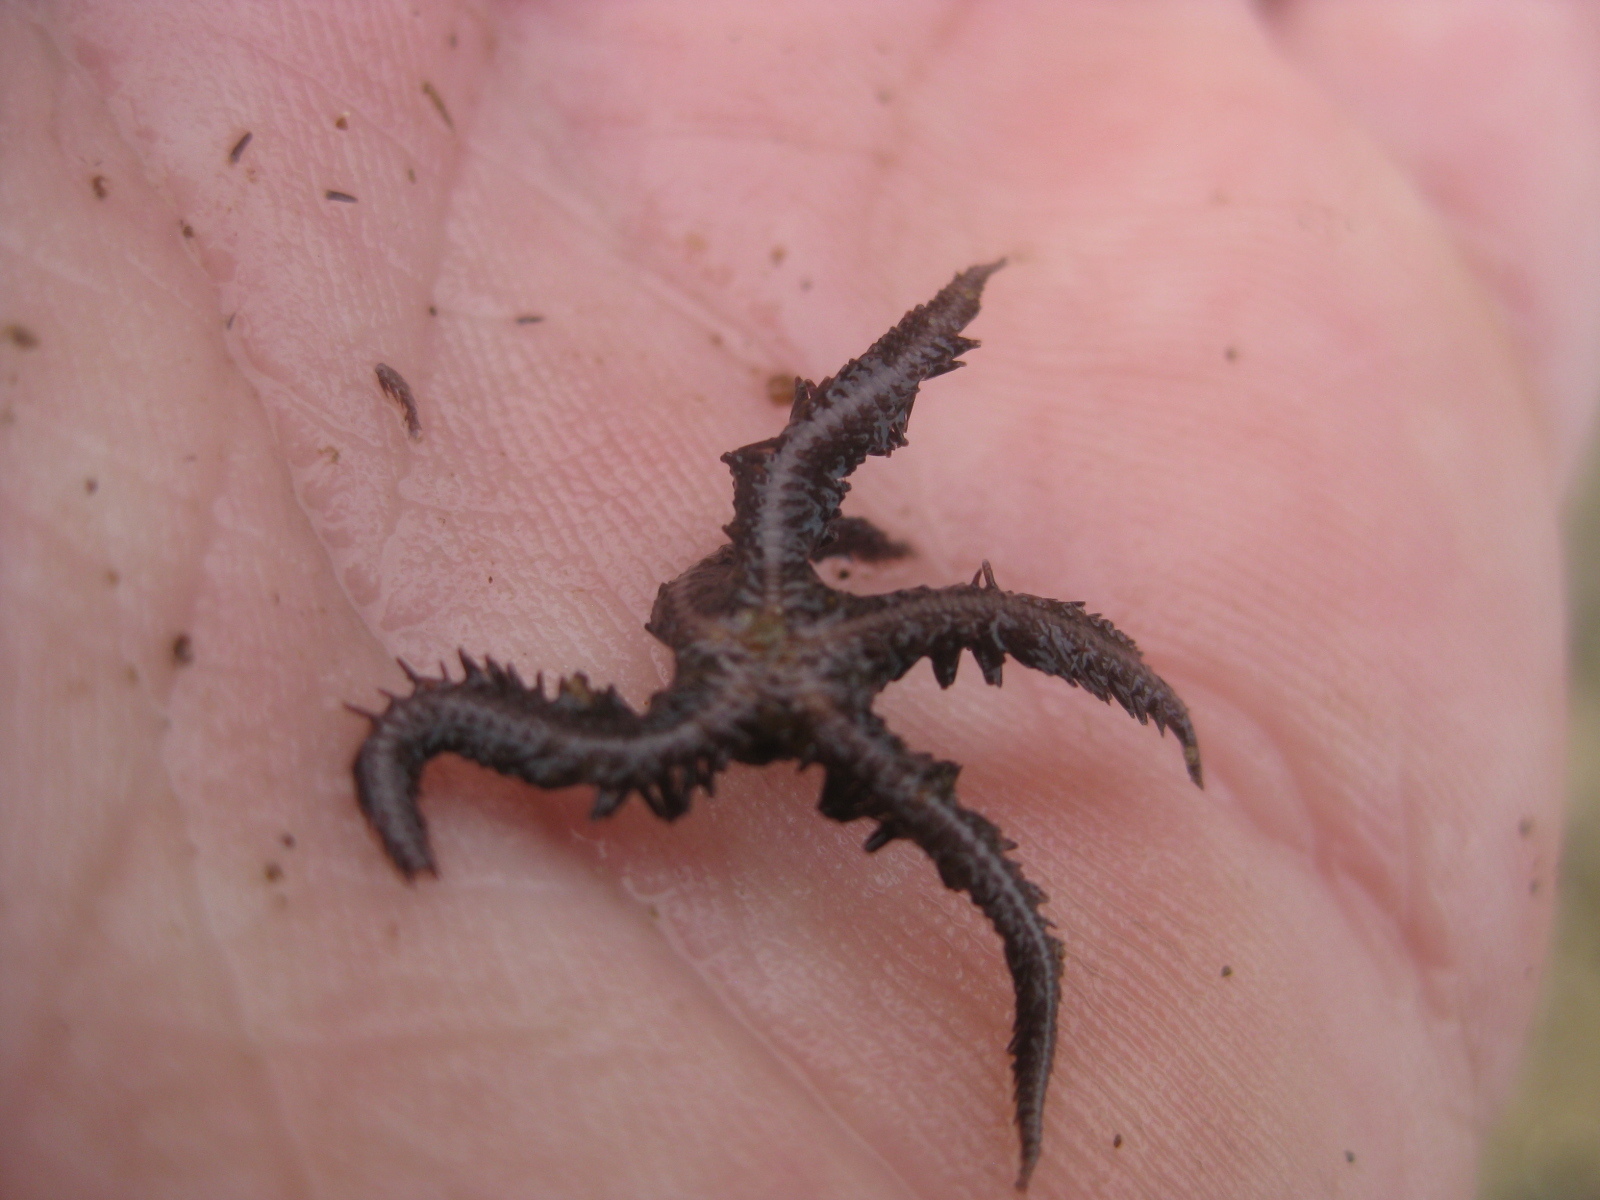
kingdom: Animalia
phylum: Echinodermata
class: Ophiuroidea
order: Ophiacanthida
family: Ophiopteridae
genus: Ophiopteris
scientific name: Ophiopteris antipodum
